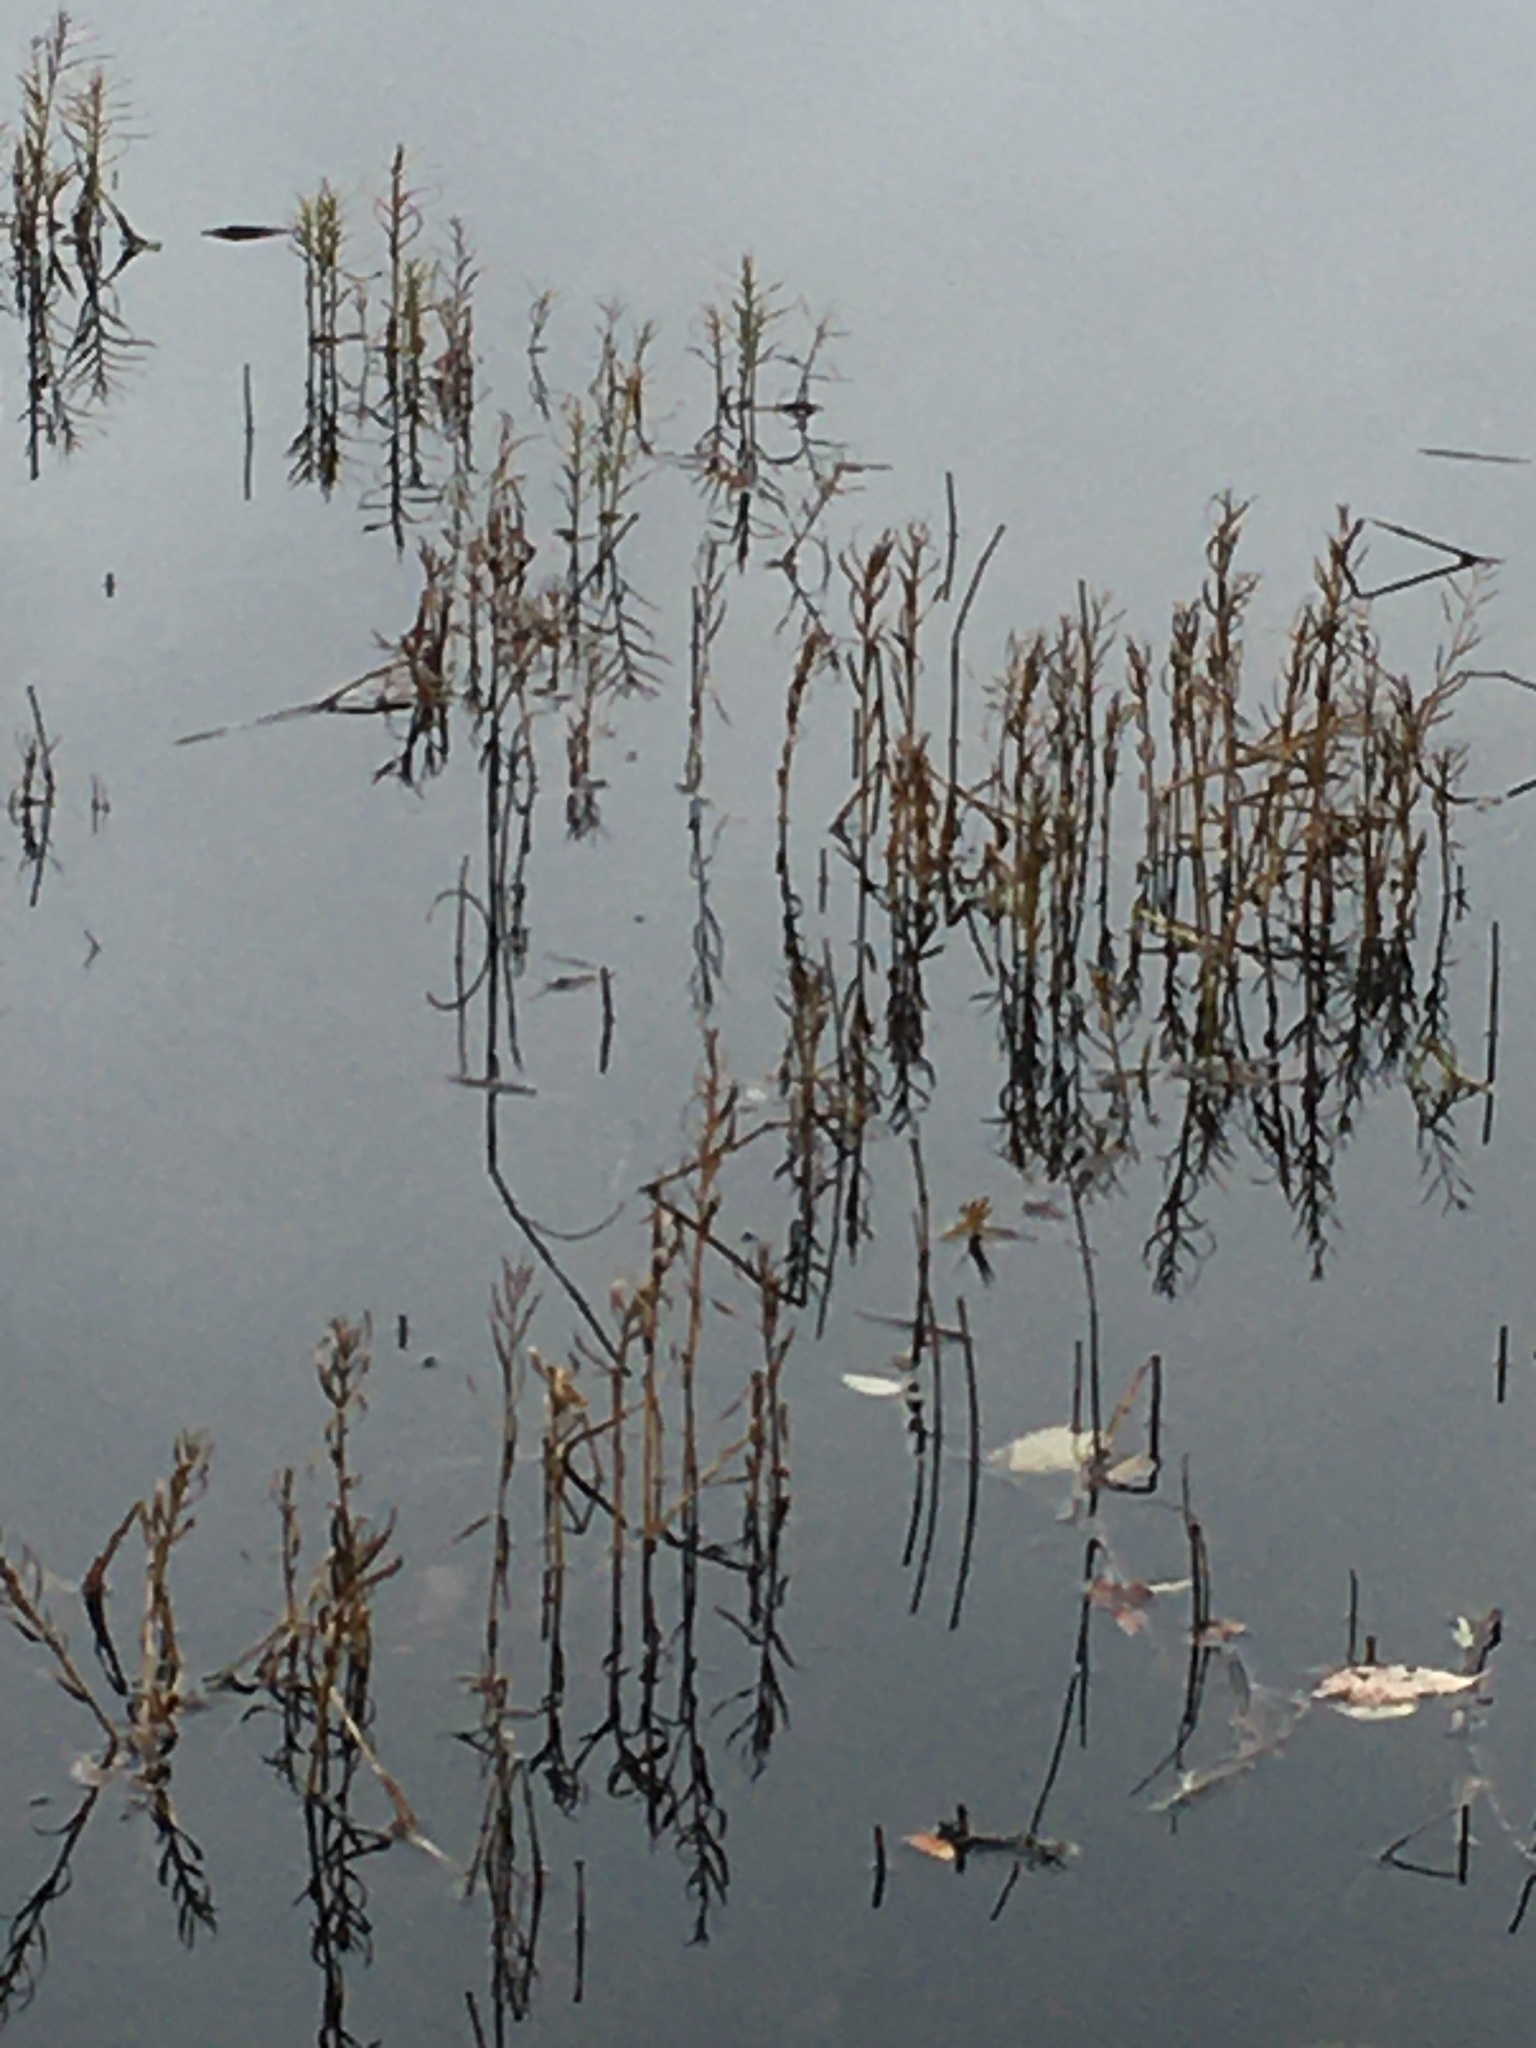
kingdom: Plantae
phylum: Tracheophyta
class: Liliopsida
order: Poales
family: Cyperaceae
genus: Dulichium
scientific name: Dulichium arundinaceum
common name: Three-way sedge
